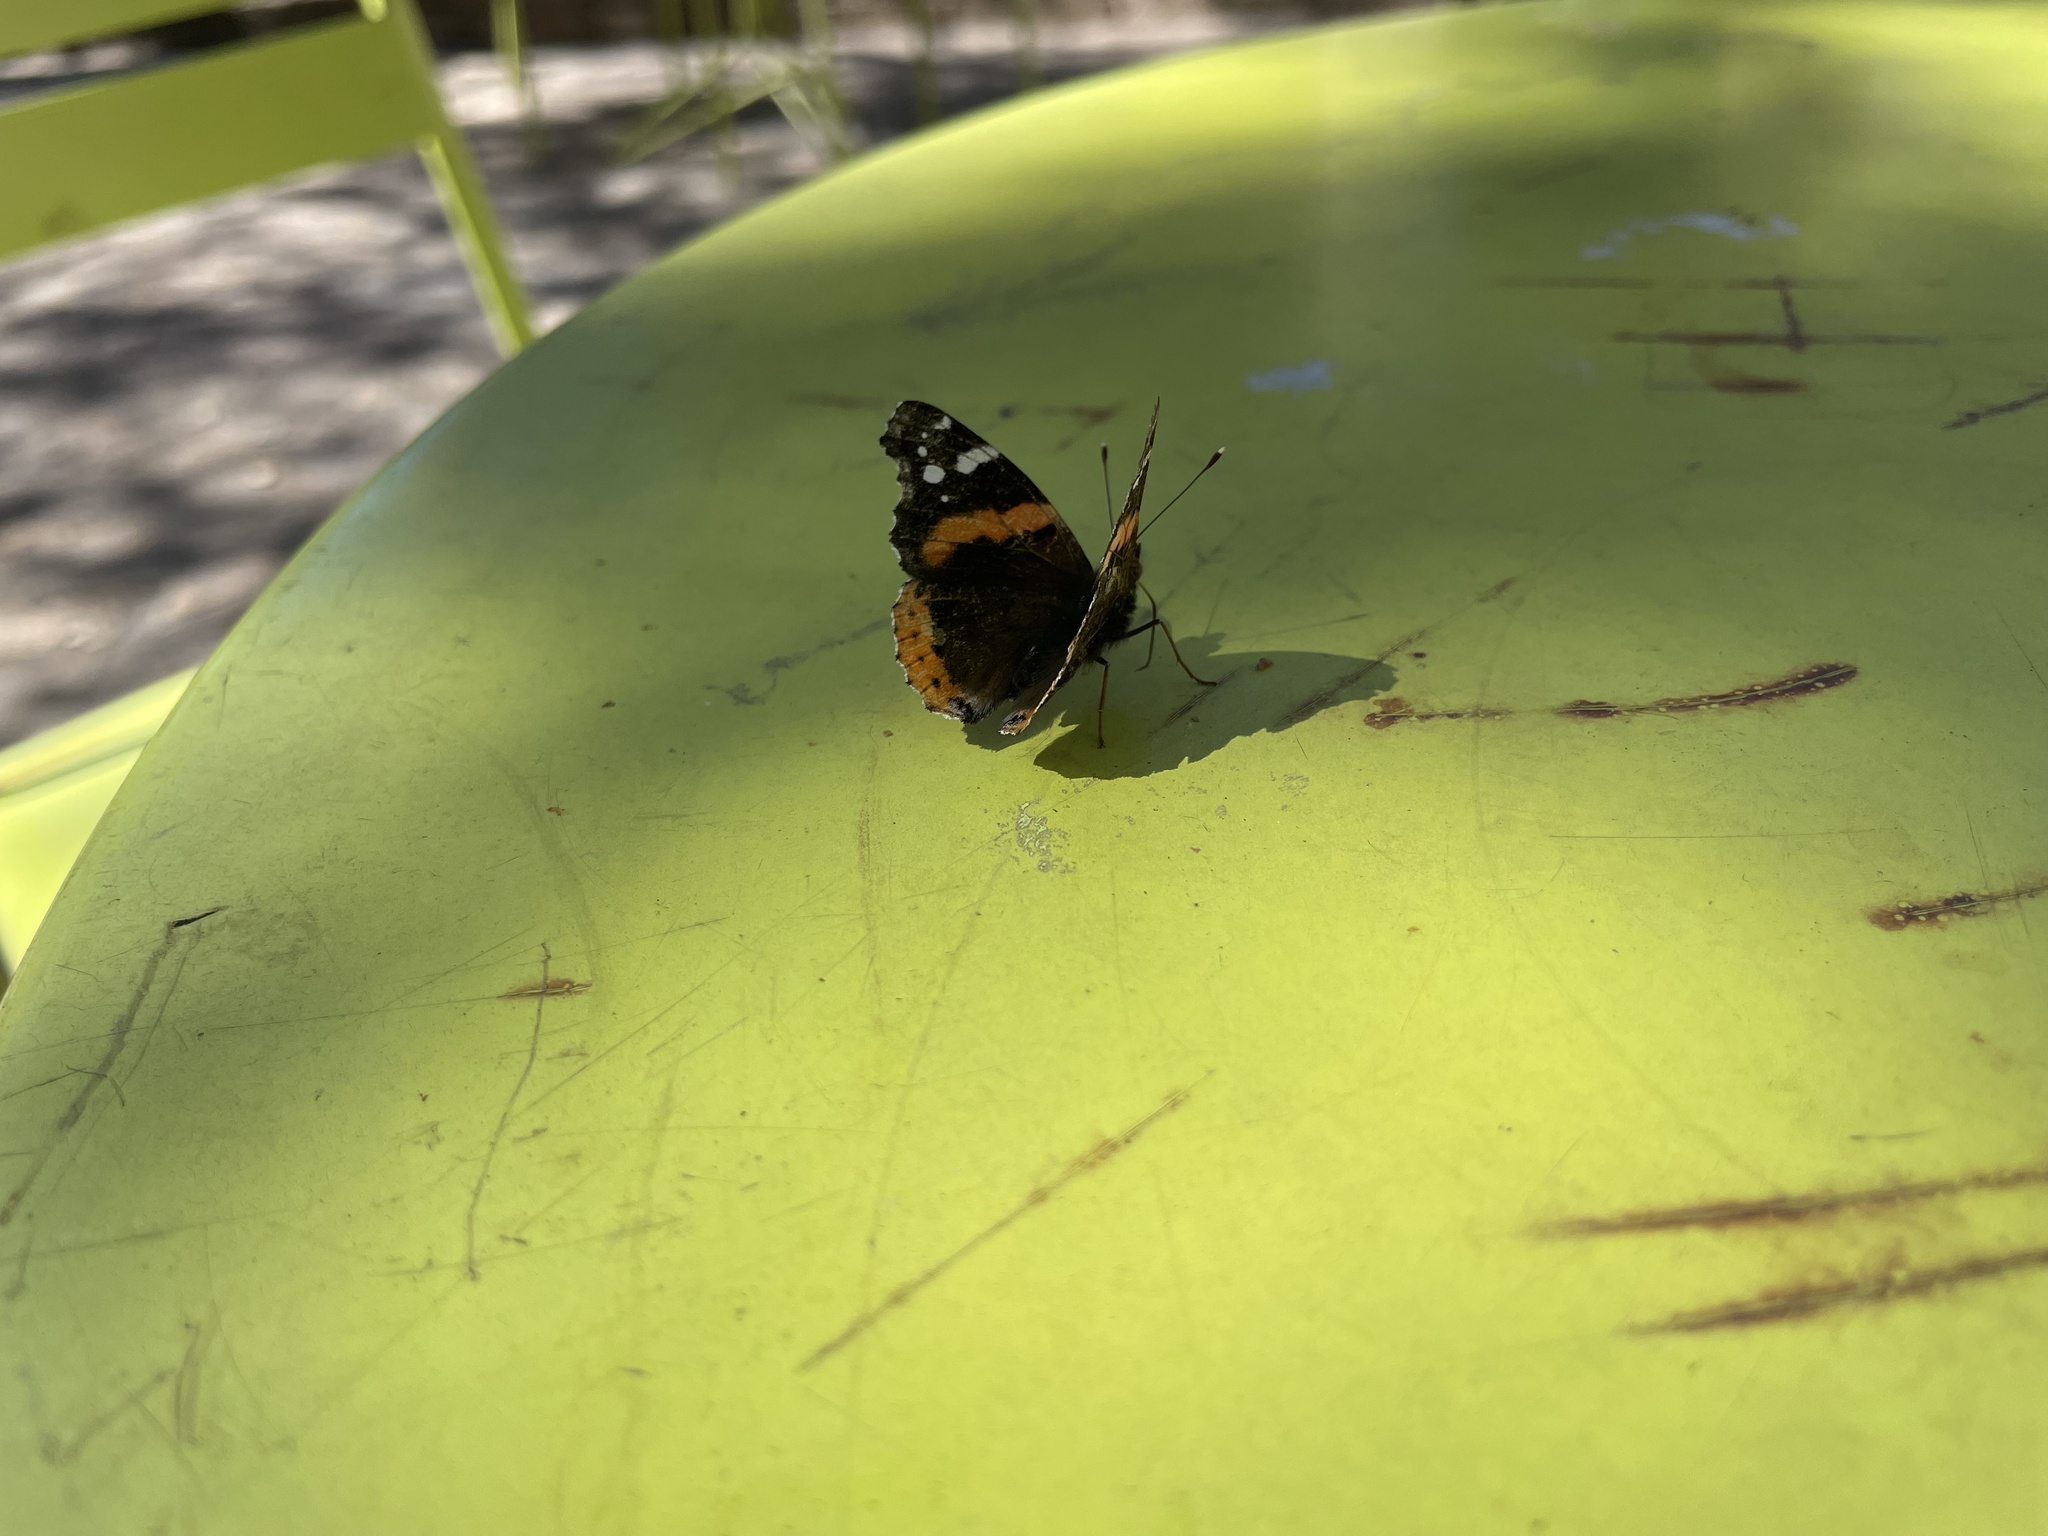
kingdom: Animalia
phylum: Arthropoda
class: Insecta
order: Lepidoptera
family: Nymphalidae
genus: Vanessa
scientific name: Vanessa atalanta
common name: Red admiral
